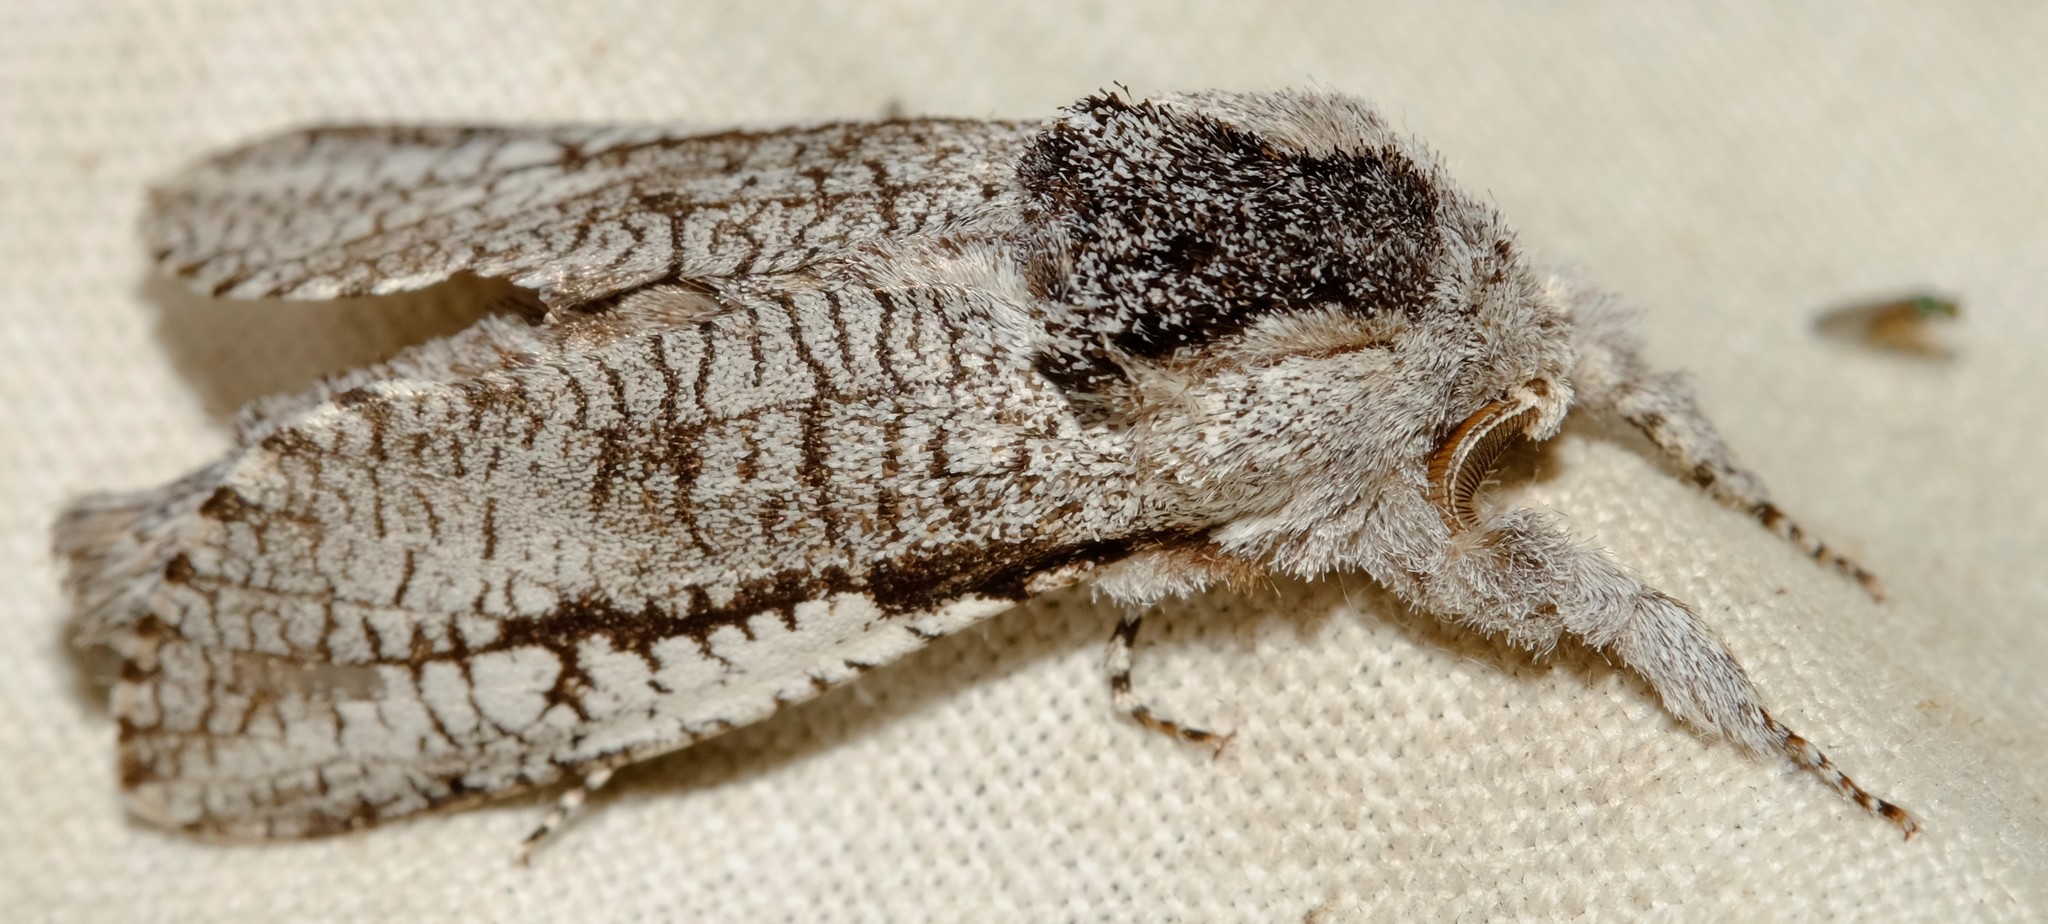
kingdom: Animalia
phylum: Arthropoda
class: Insecta
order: Lepidoptera
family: Cossidae
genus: Endoxyla
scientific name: Endoxyla secta
